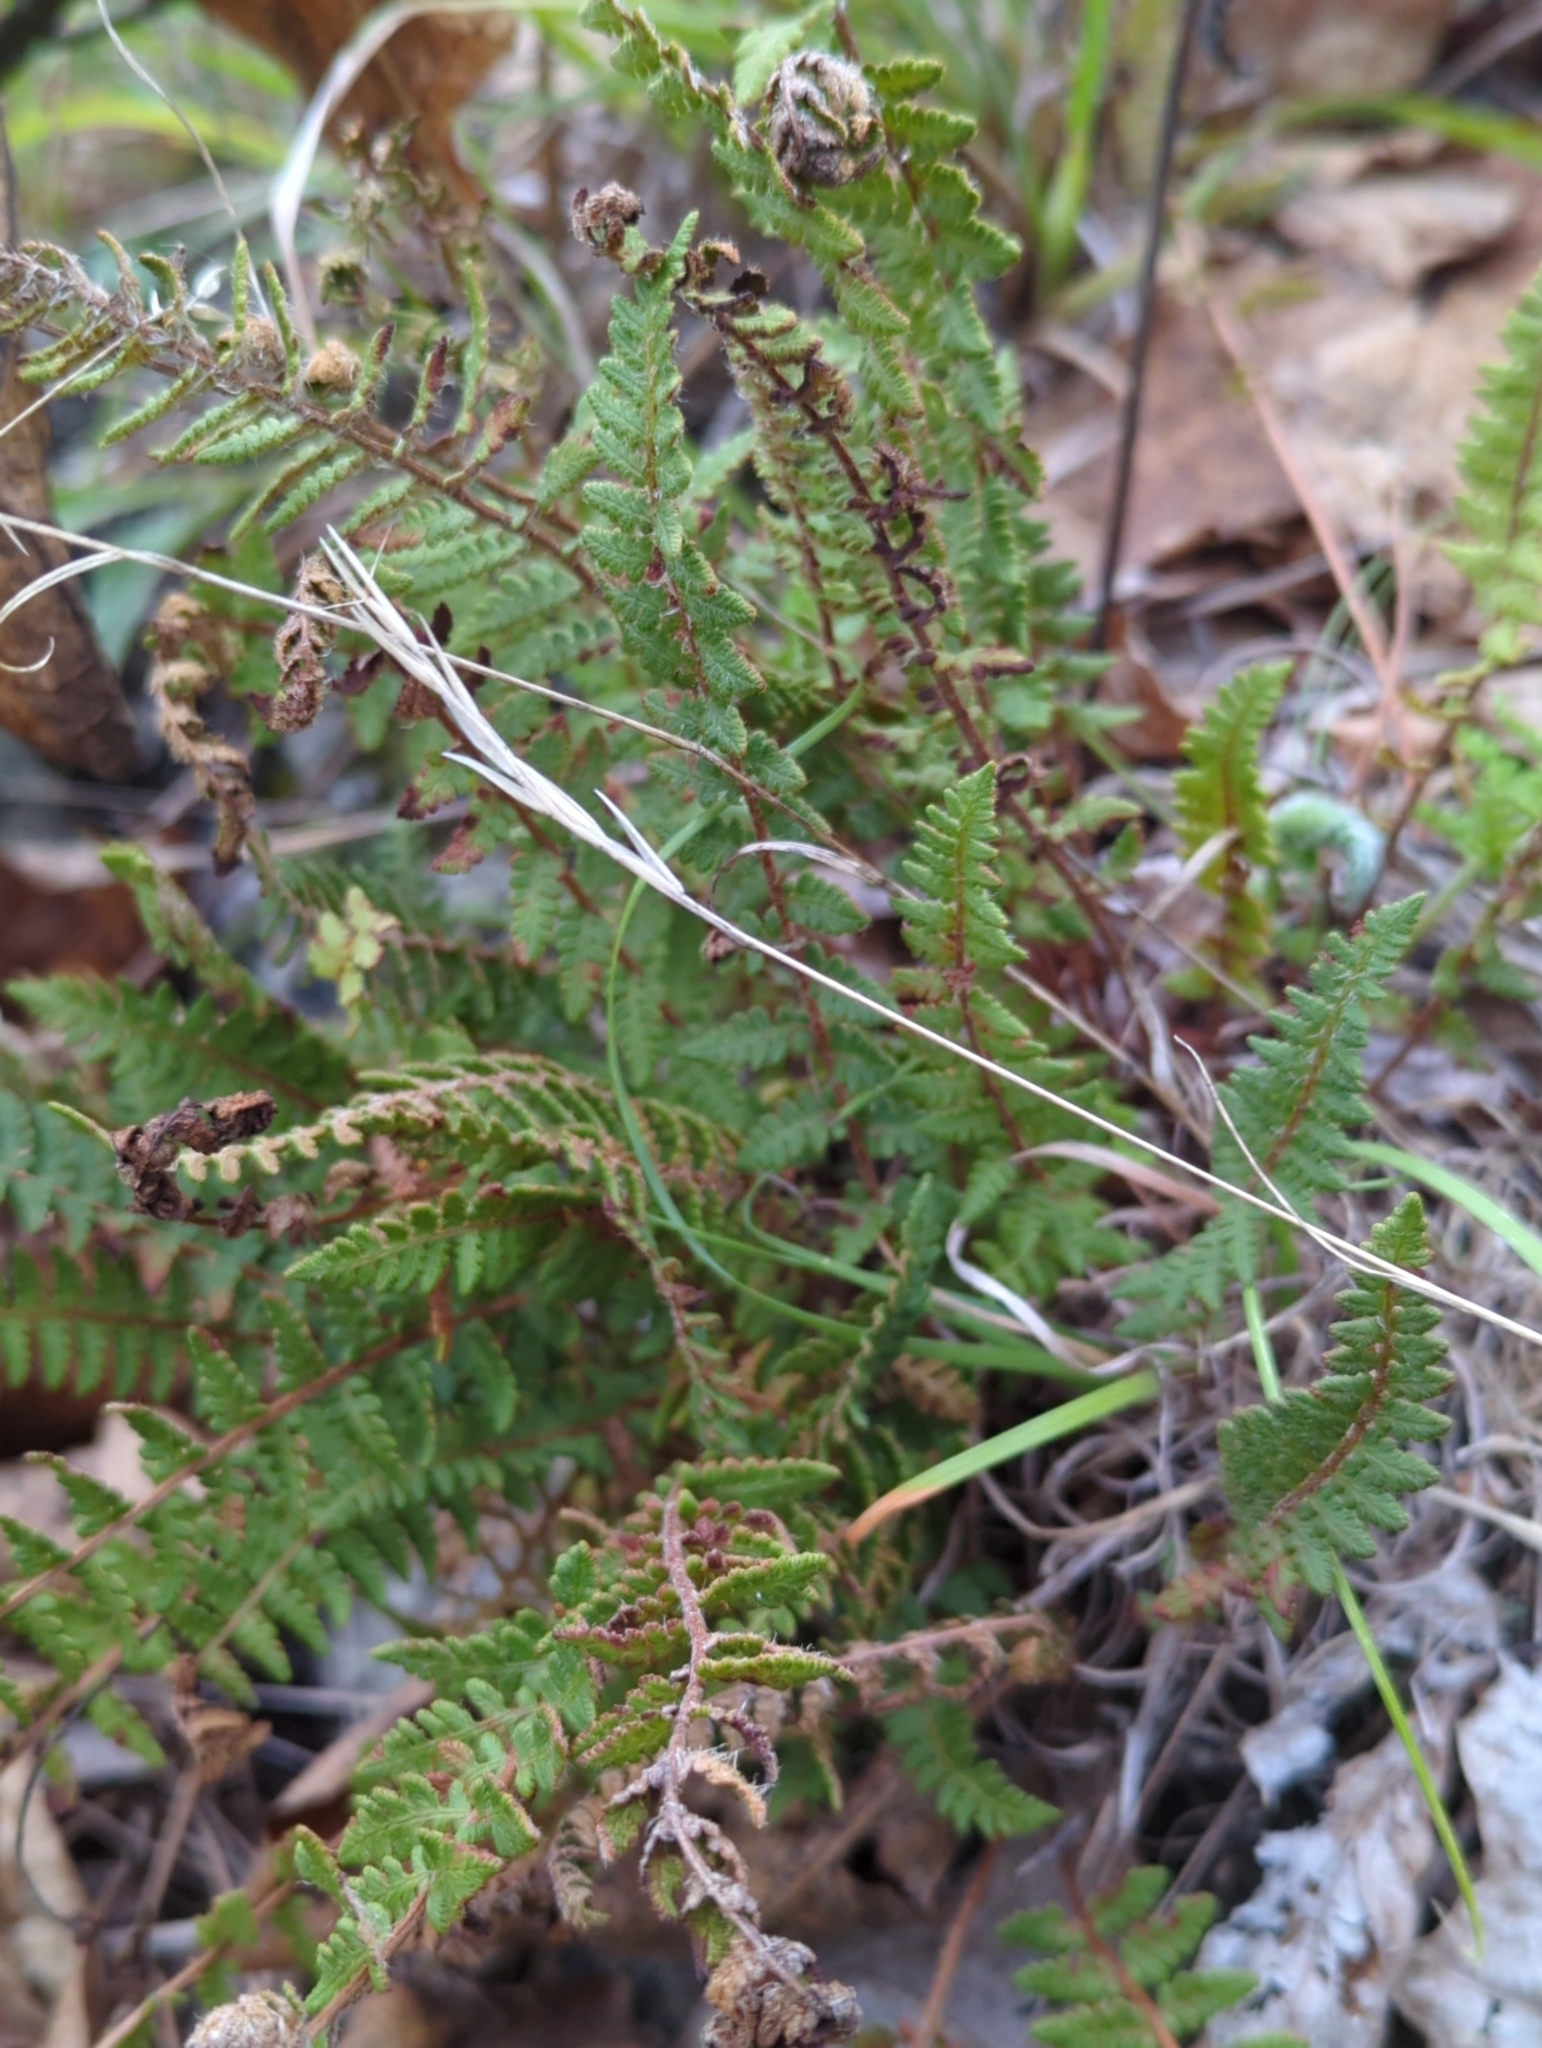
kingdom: Plantae
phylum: Tracheophyta
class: Polypodiopsida
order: Polypodiales
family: Woodsiaceae
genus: Woodsia
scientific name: Woodsia ilvensis
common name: Fragrant woodsia
